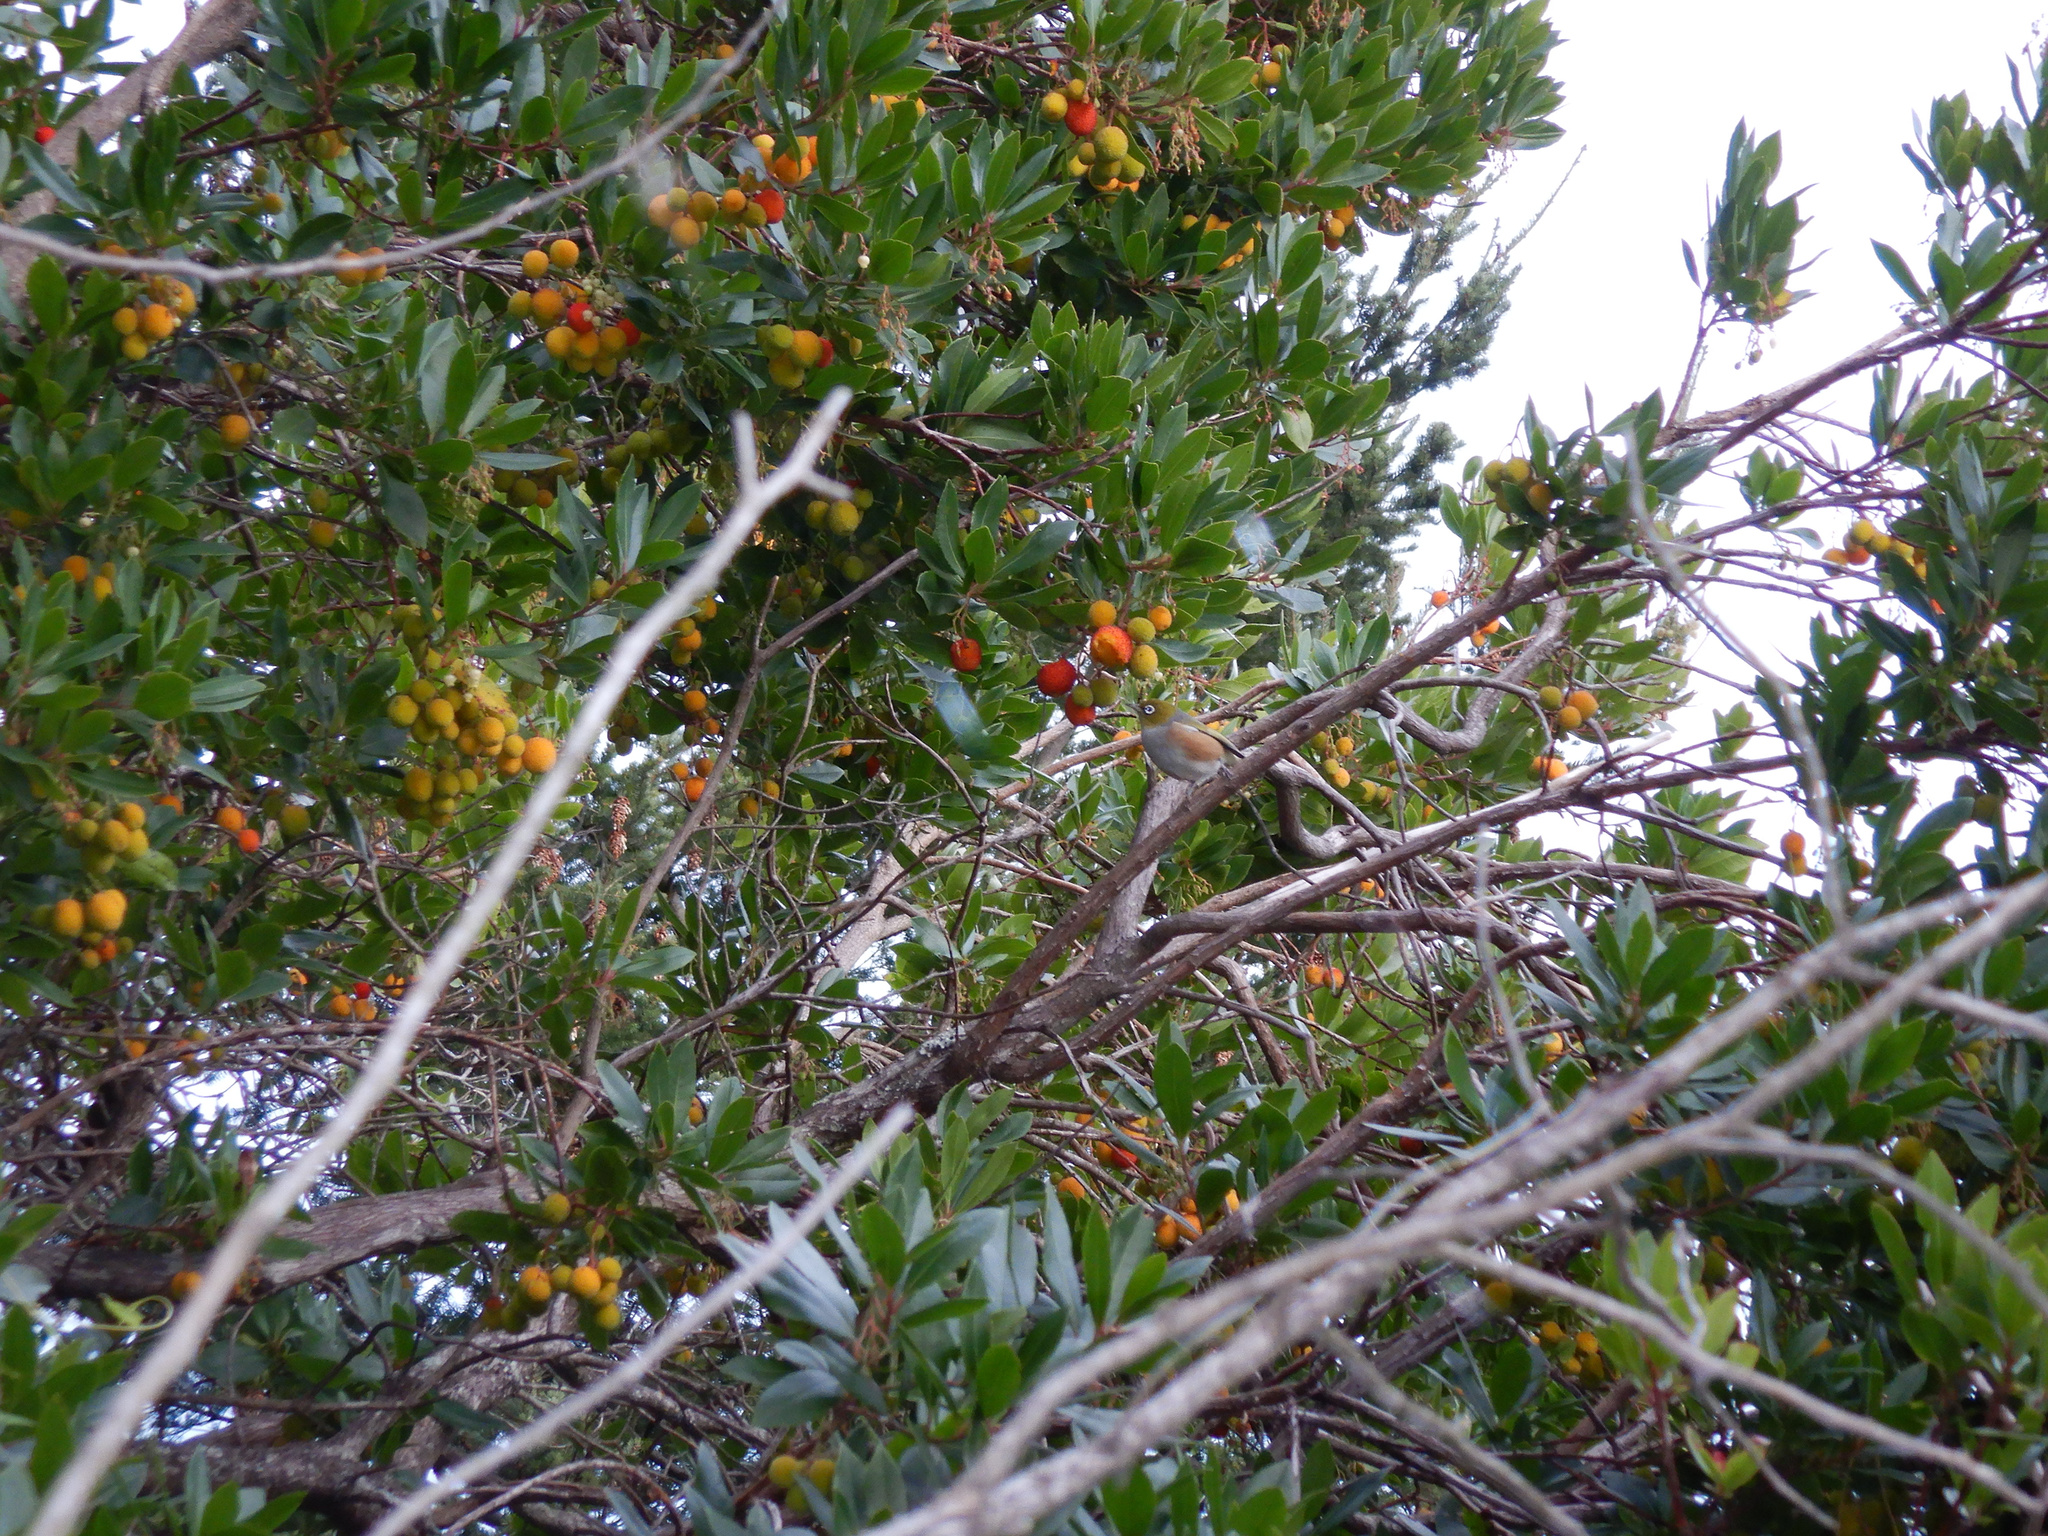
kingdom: Animalia
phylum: Chordata
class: Aves
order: Passeriformes
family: Zosteropidae
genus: Zosterops
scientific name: Zosterops lateralis
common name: Silvereye
